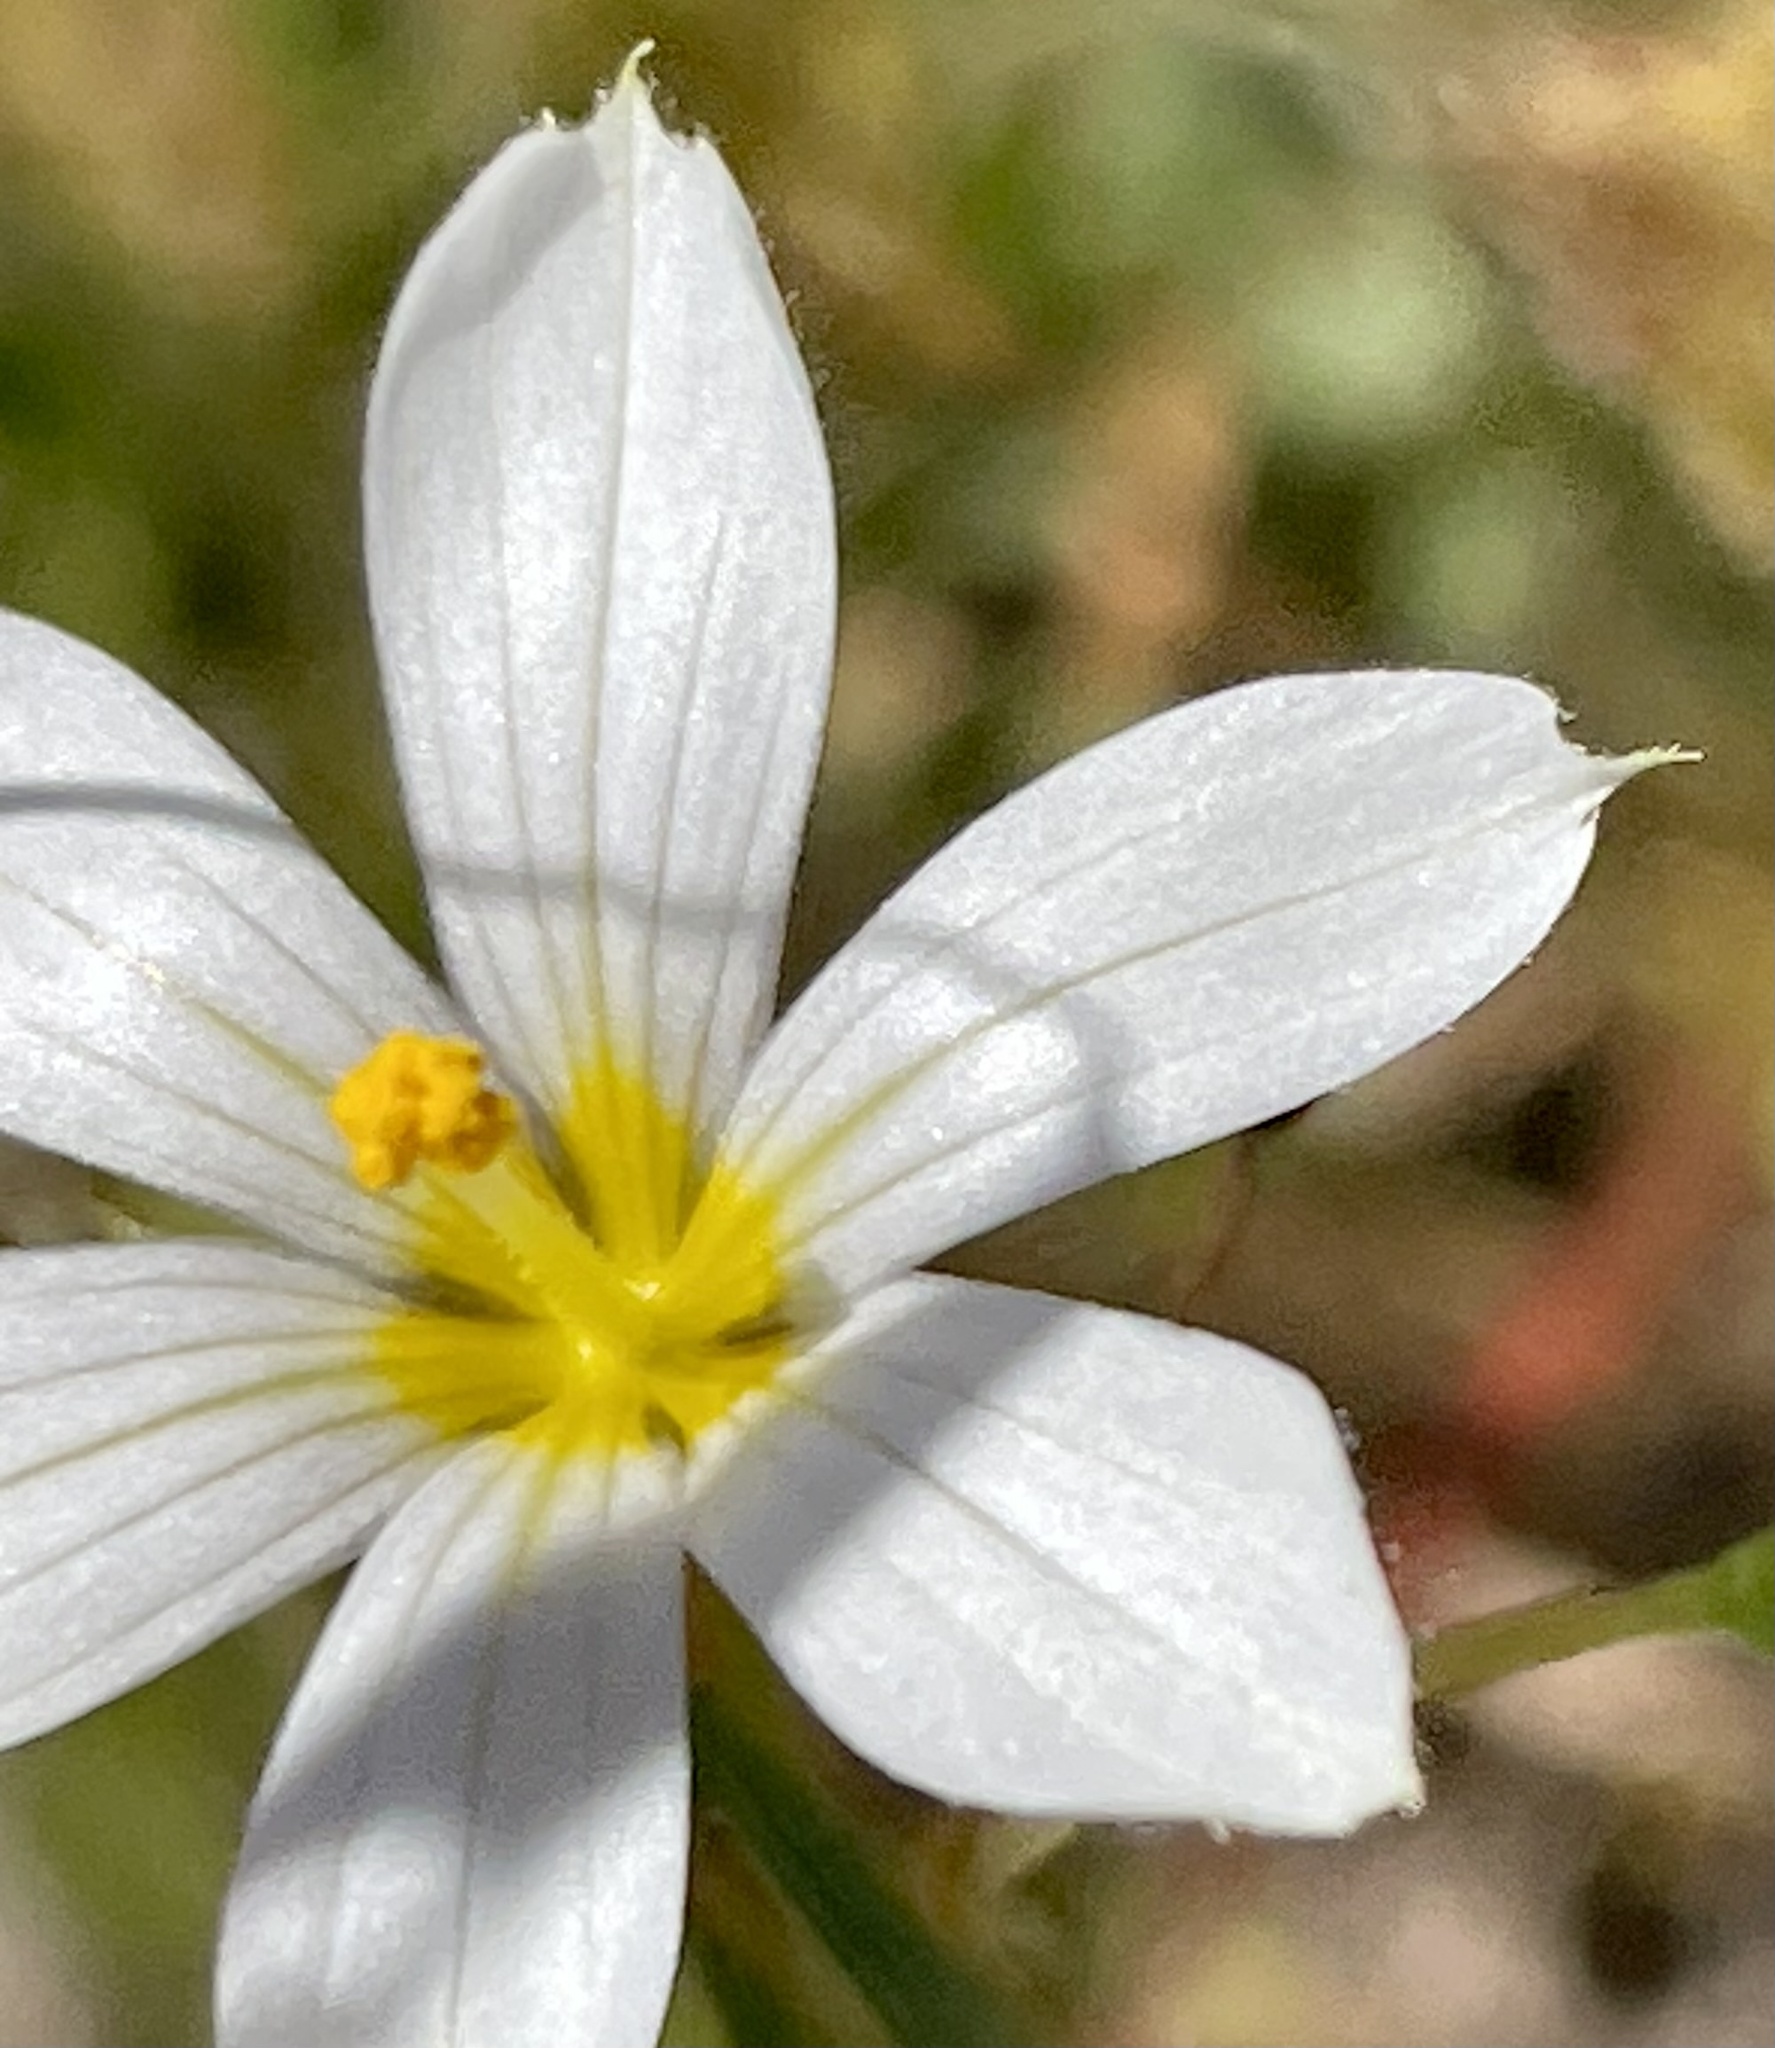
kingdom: Plantae
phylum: Tracheophyta
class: Liliopsida
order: Asparagales
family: Iridaceae
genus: Sisyrinchium
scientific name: Sisyrinchium bellum
